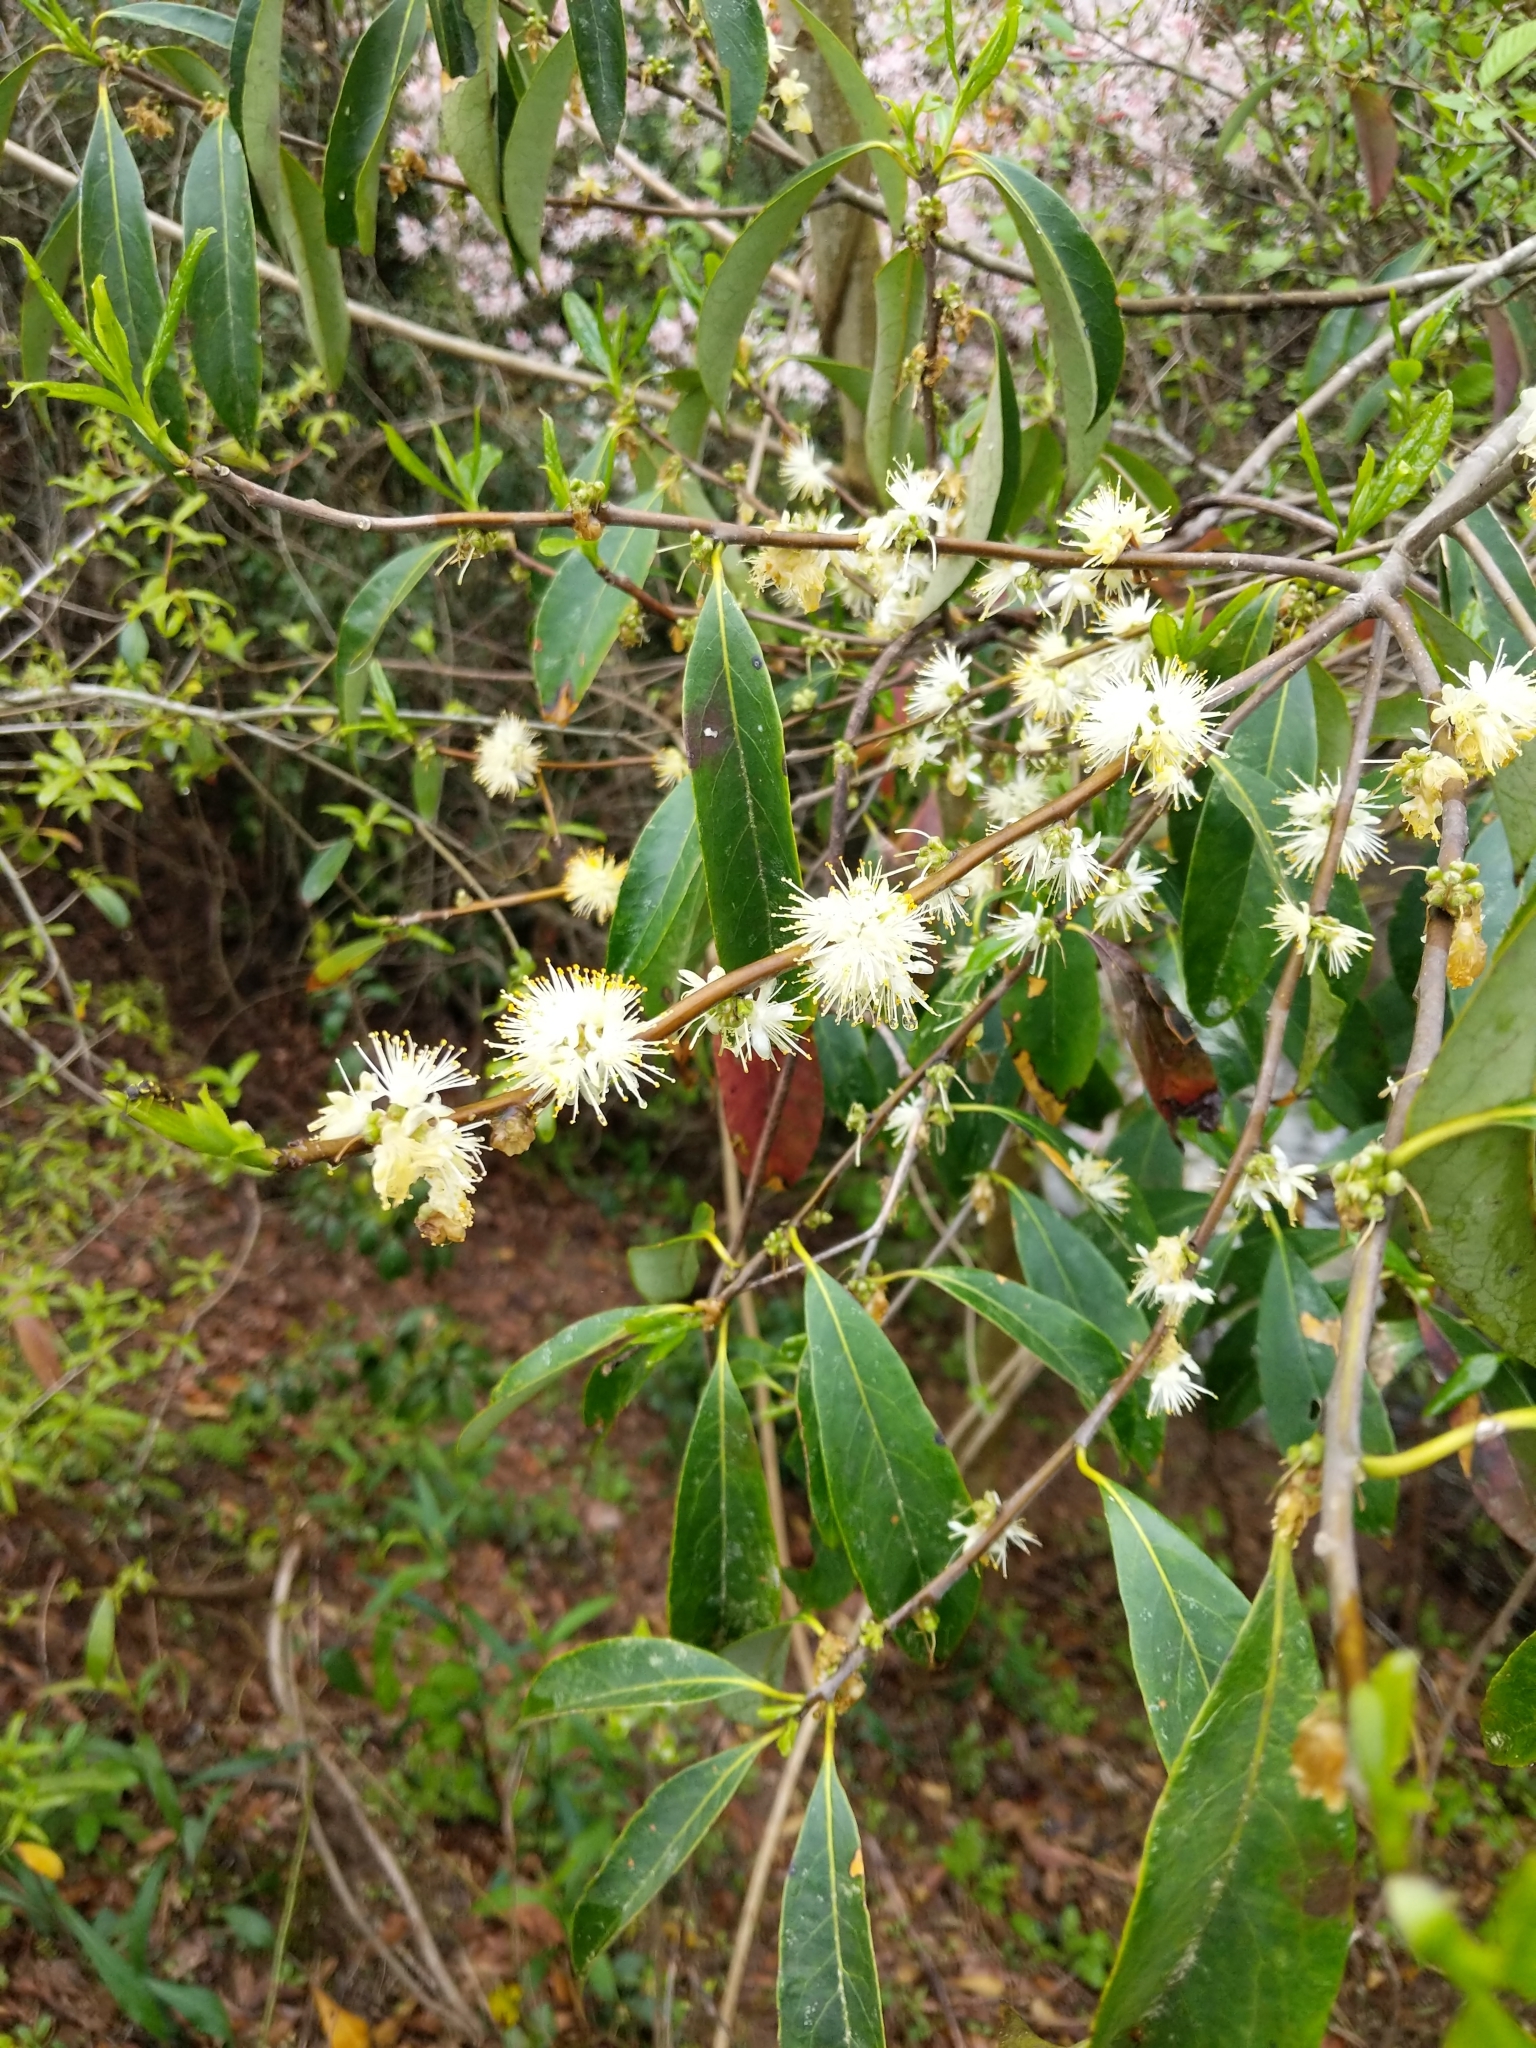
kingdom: Plantae
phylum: Tracheophyta
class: Magnoliopsida
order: Ericales
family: Symplocaceae
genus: Symplocos
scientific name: Symplocos tinctoria
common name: Horse-sugar
